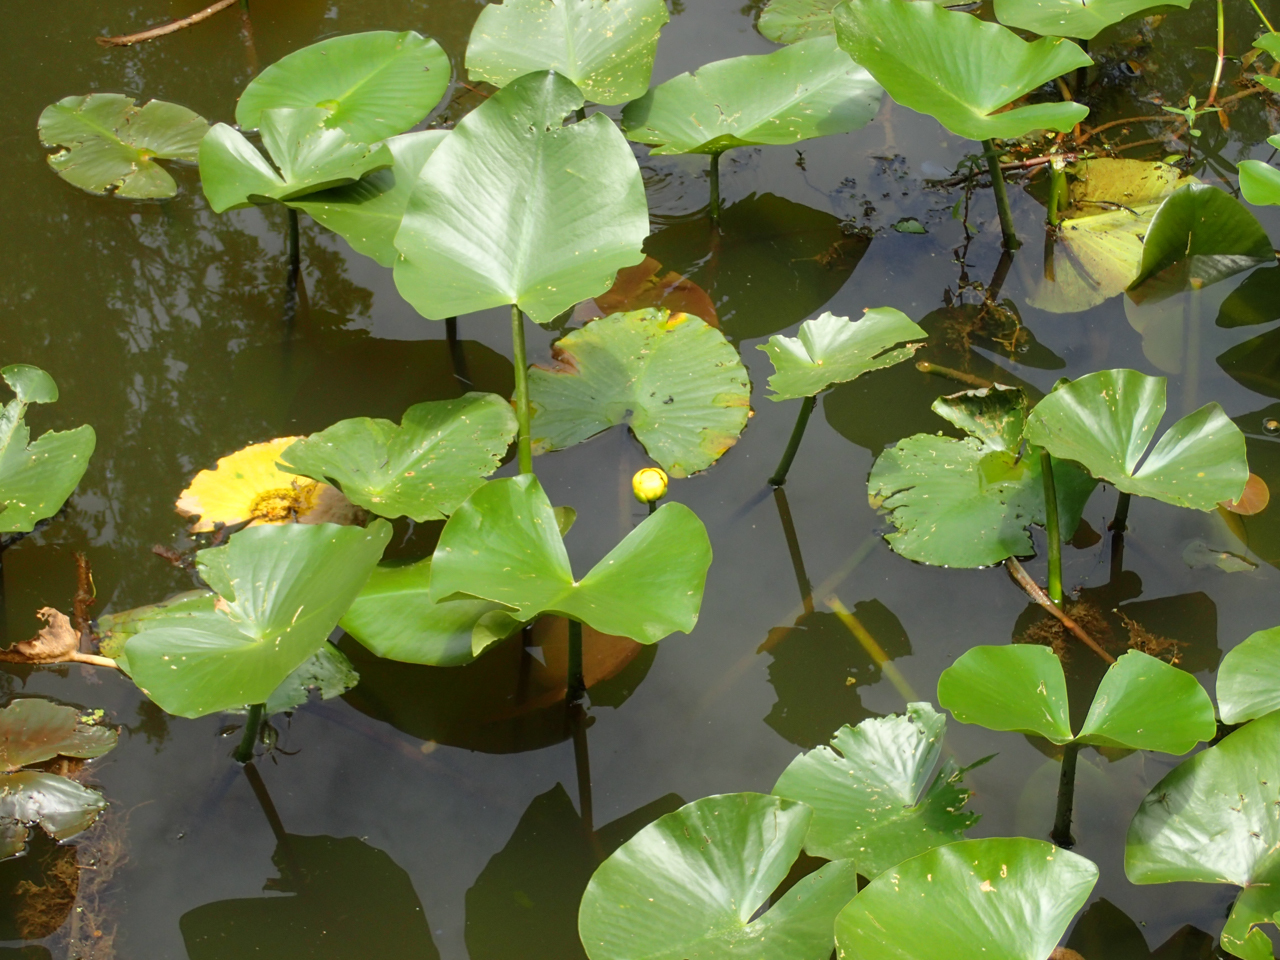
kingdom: Plantae
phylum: Tracheophyta
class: Magnoliopsida
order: Nymphaeales
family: Nymphaeaceae
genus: Nuphar
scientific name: Nuphar advena
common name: Spatter-dock
